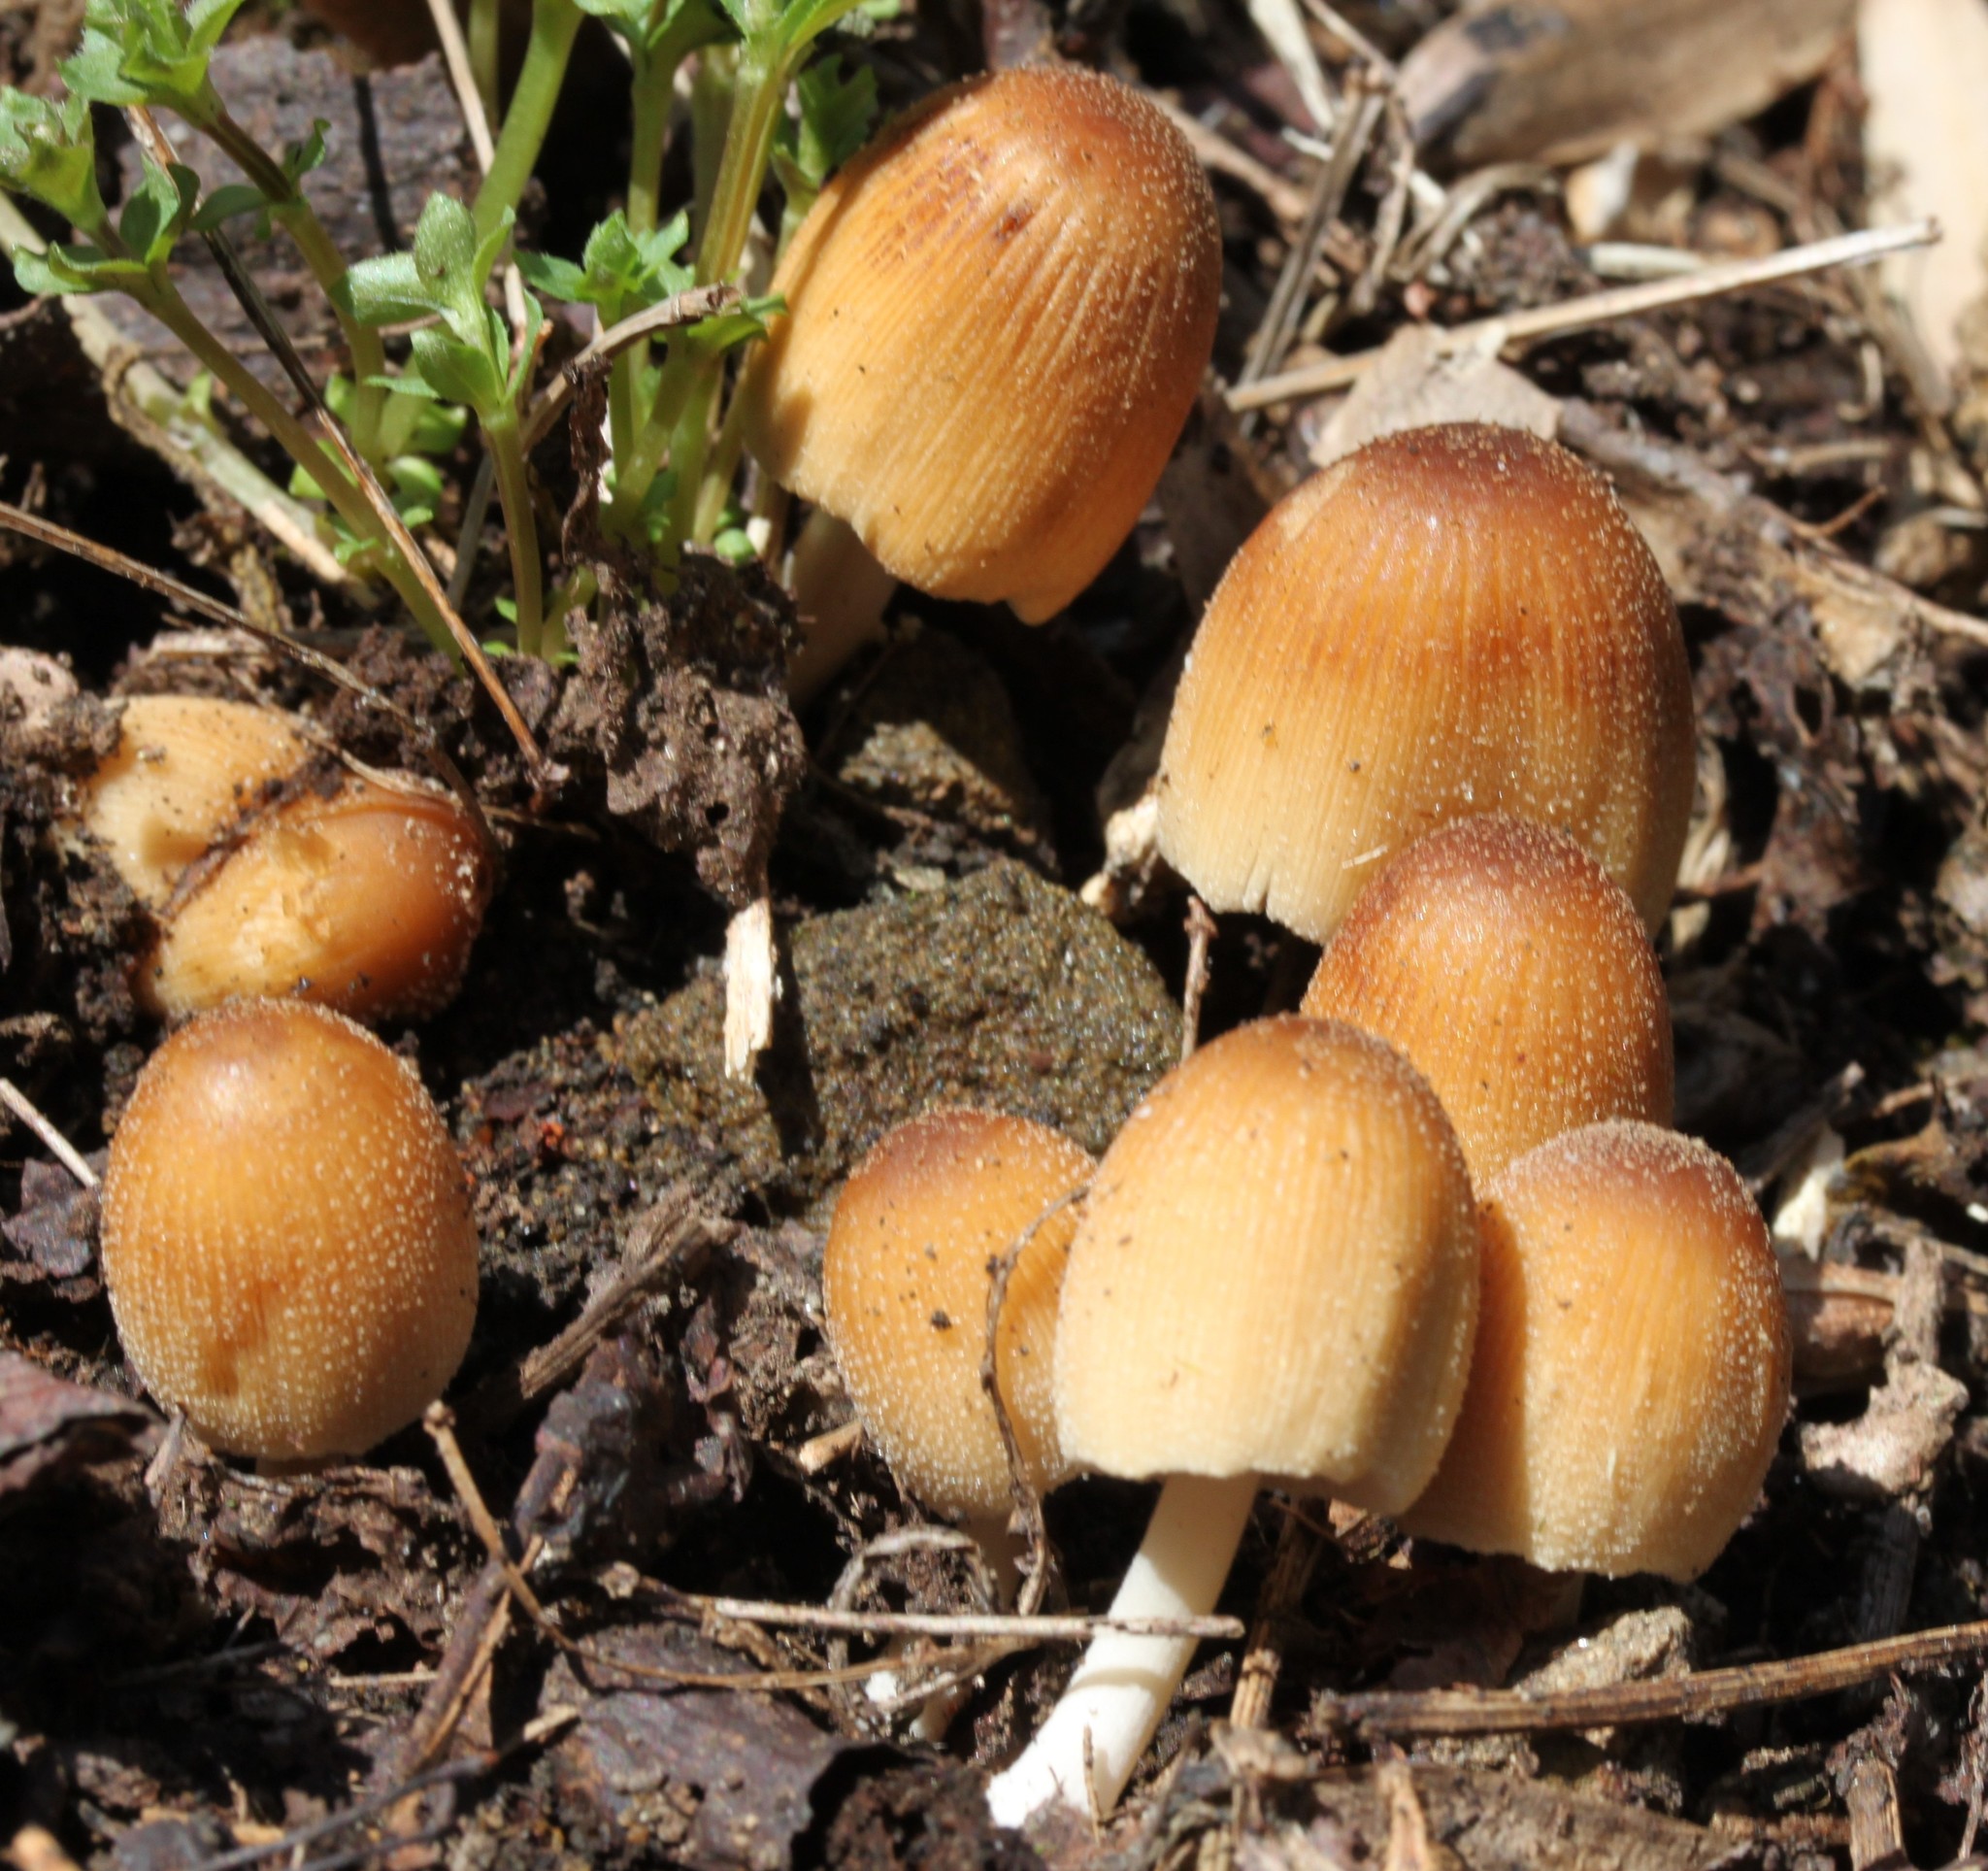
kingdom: Fungi
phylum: Basidiomycota
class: Agaricomycetes
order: Agaricales
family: Psathyrellaceae
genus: Coprinellus
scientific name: Coprinellus micaceus
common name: Glistening ink-cap
